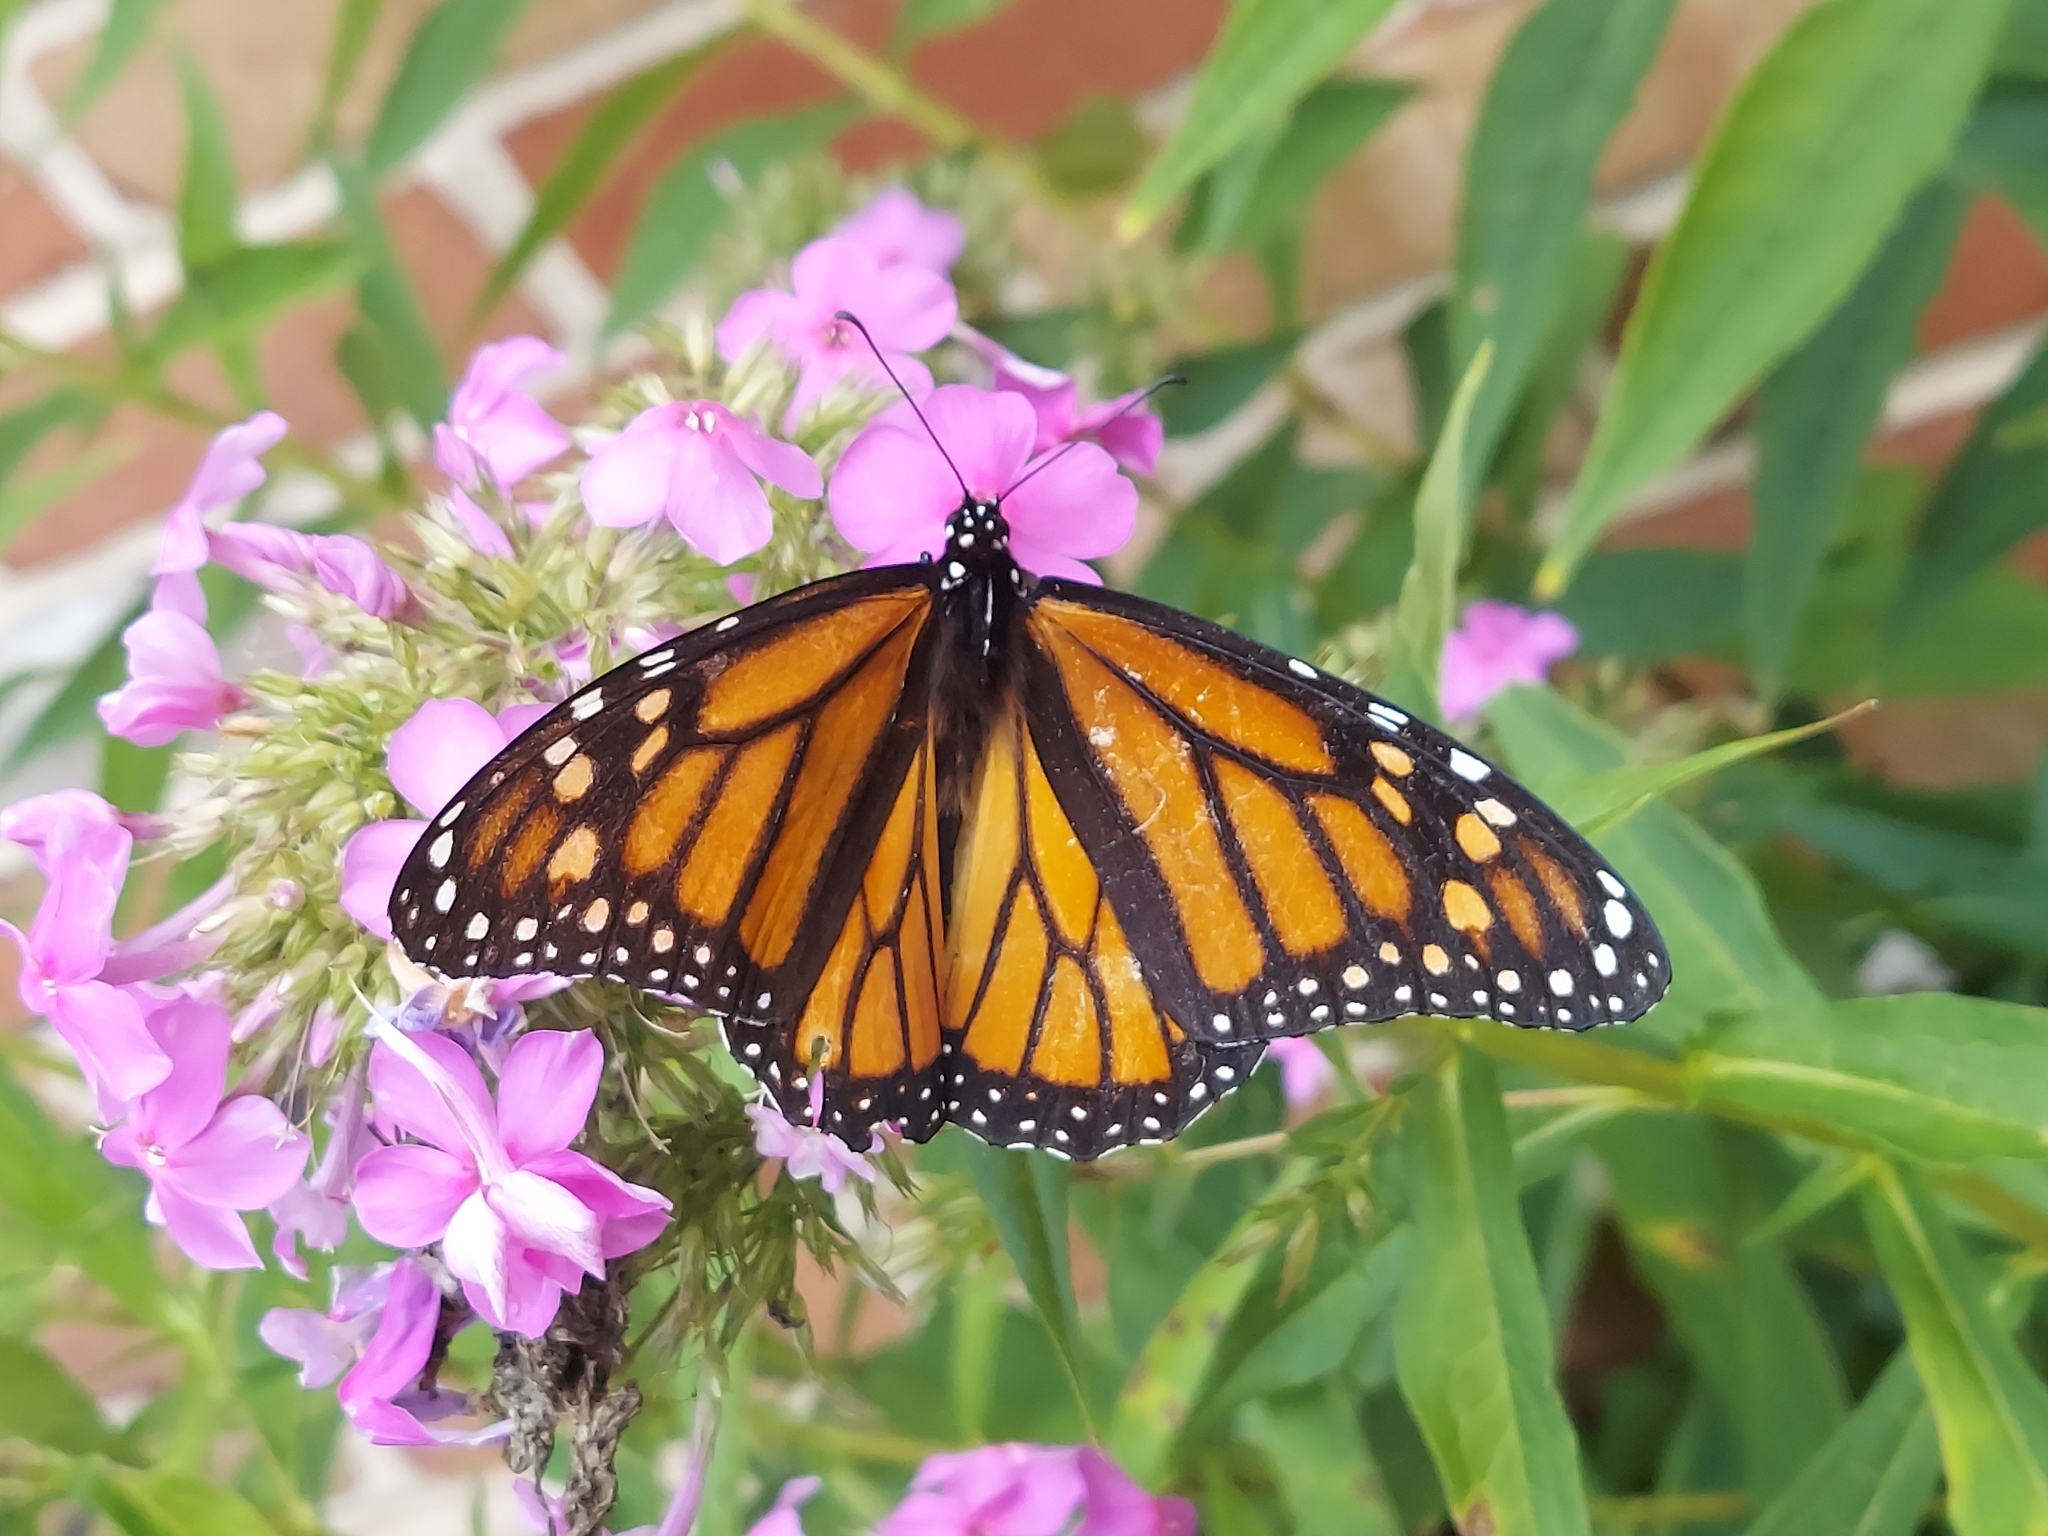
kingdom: Animalia
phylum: Arthropoda
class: Insecta
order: Lepidoptera
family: Nymphalidae
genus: Danaus
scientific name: Danaus plexippus
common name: Monarch
